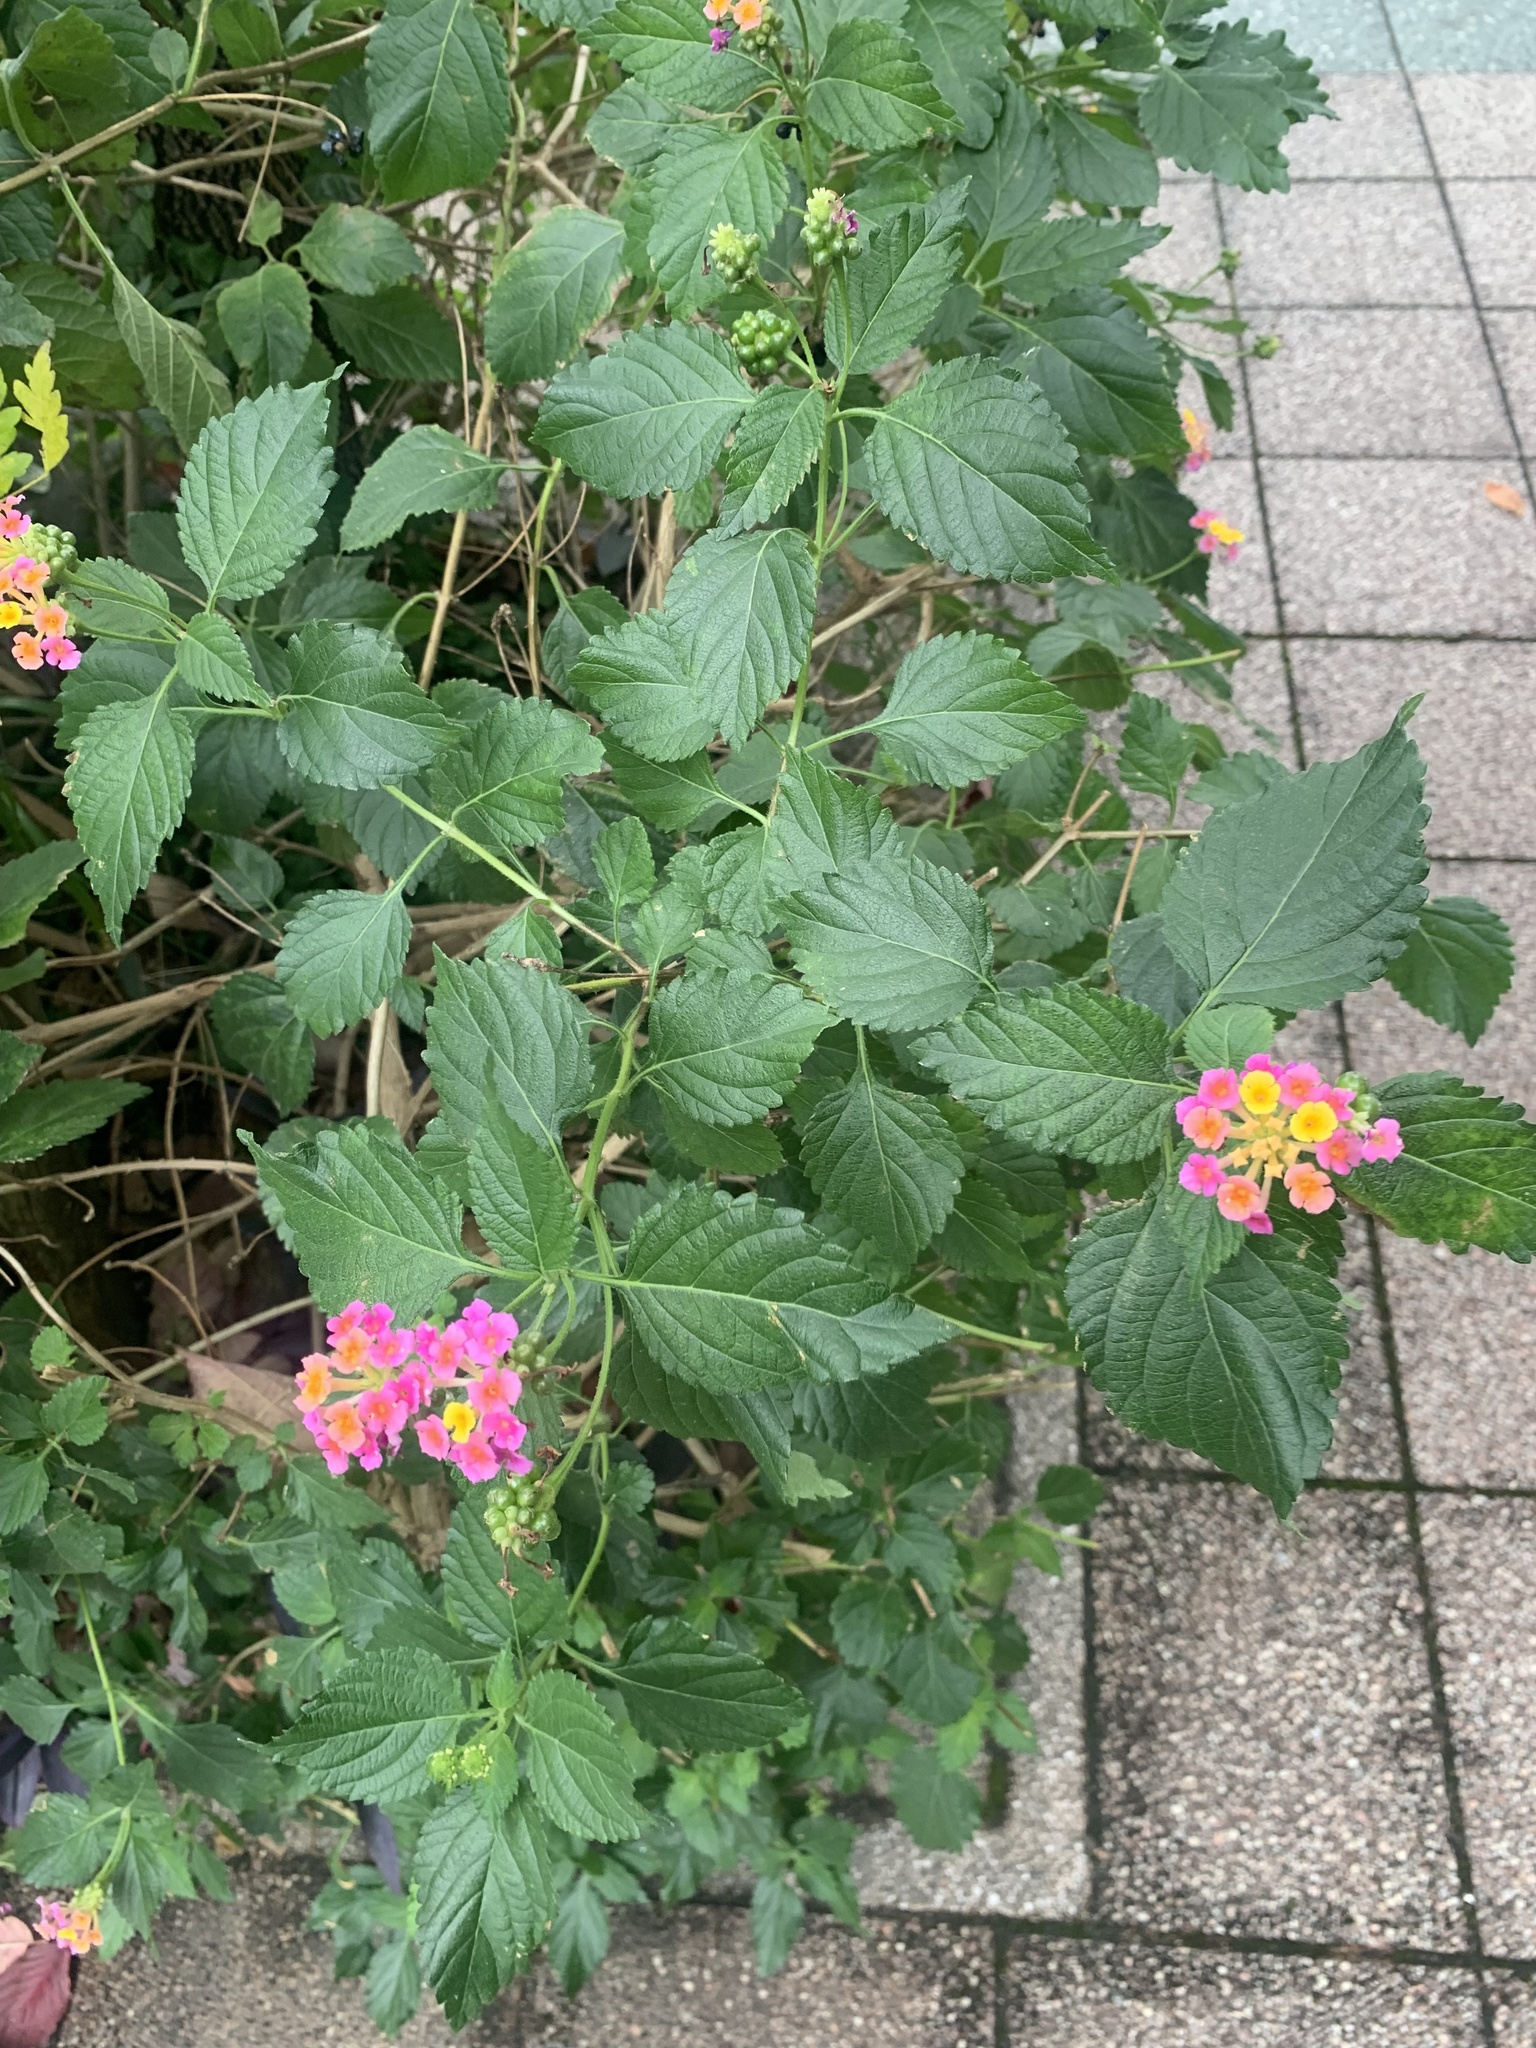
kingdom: Plantae
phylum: Tracheophyta
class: Magnoliopsida
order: Lamiales
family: Verbenaceae
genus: Lantana
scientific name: Lantana camara
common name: Lantana
